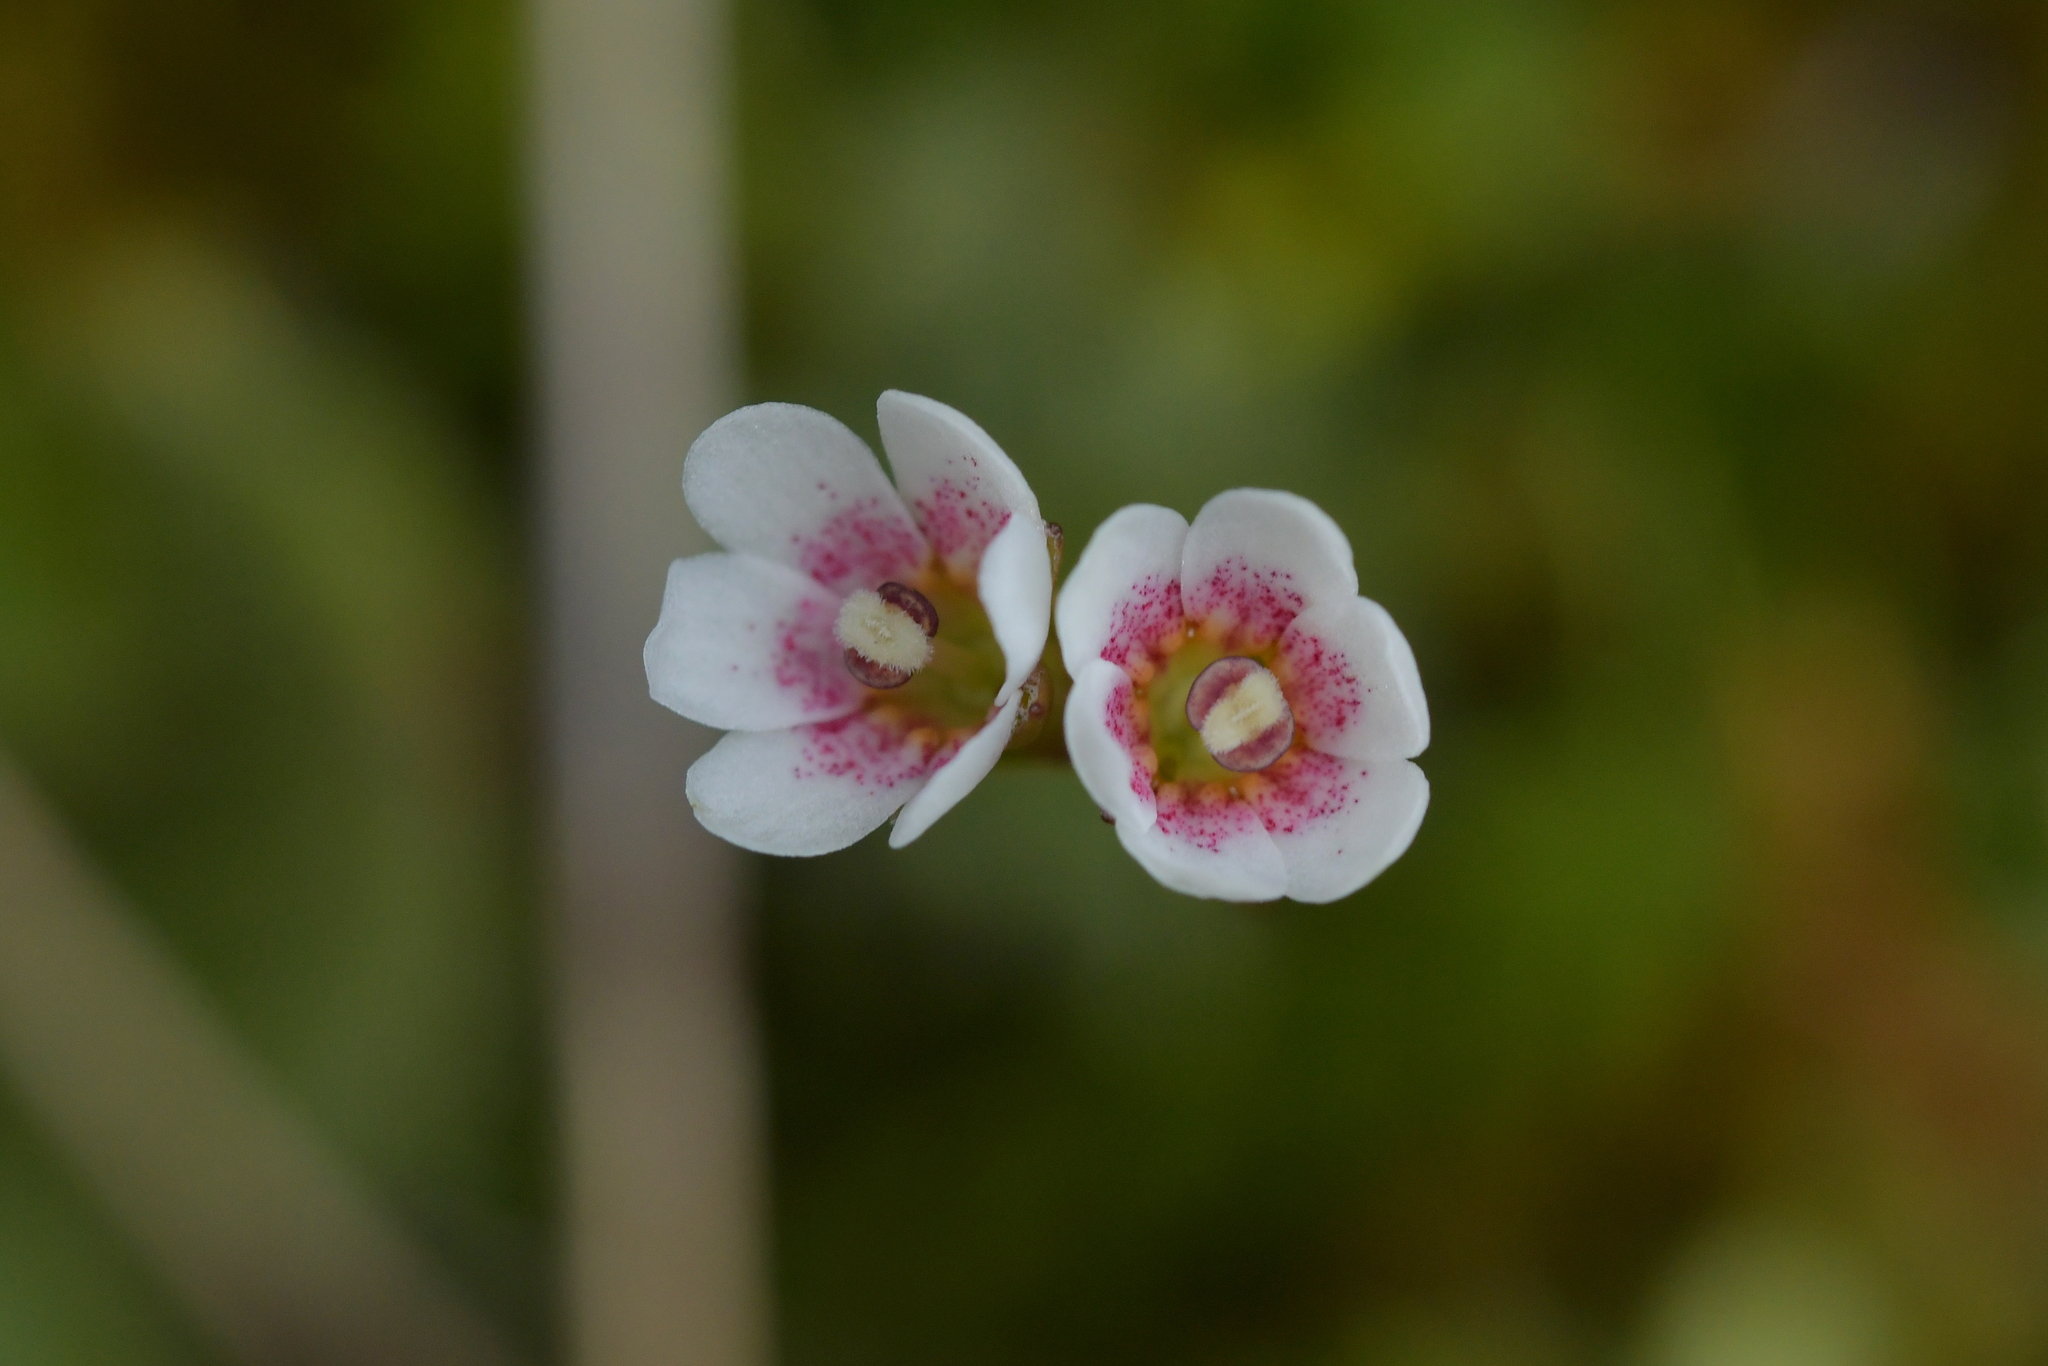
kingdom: Plantae
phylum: Tracheophyta
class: Magnoliopsida
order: Asterales
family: Stylidiaceae
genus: Forstera
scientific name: Forstera tenella
